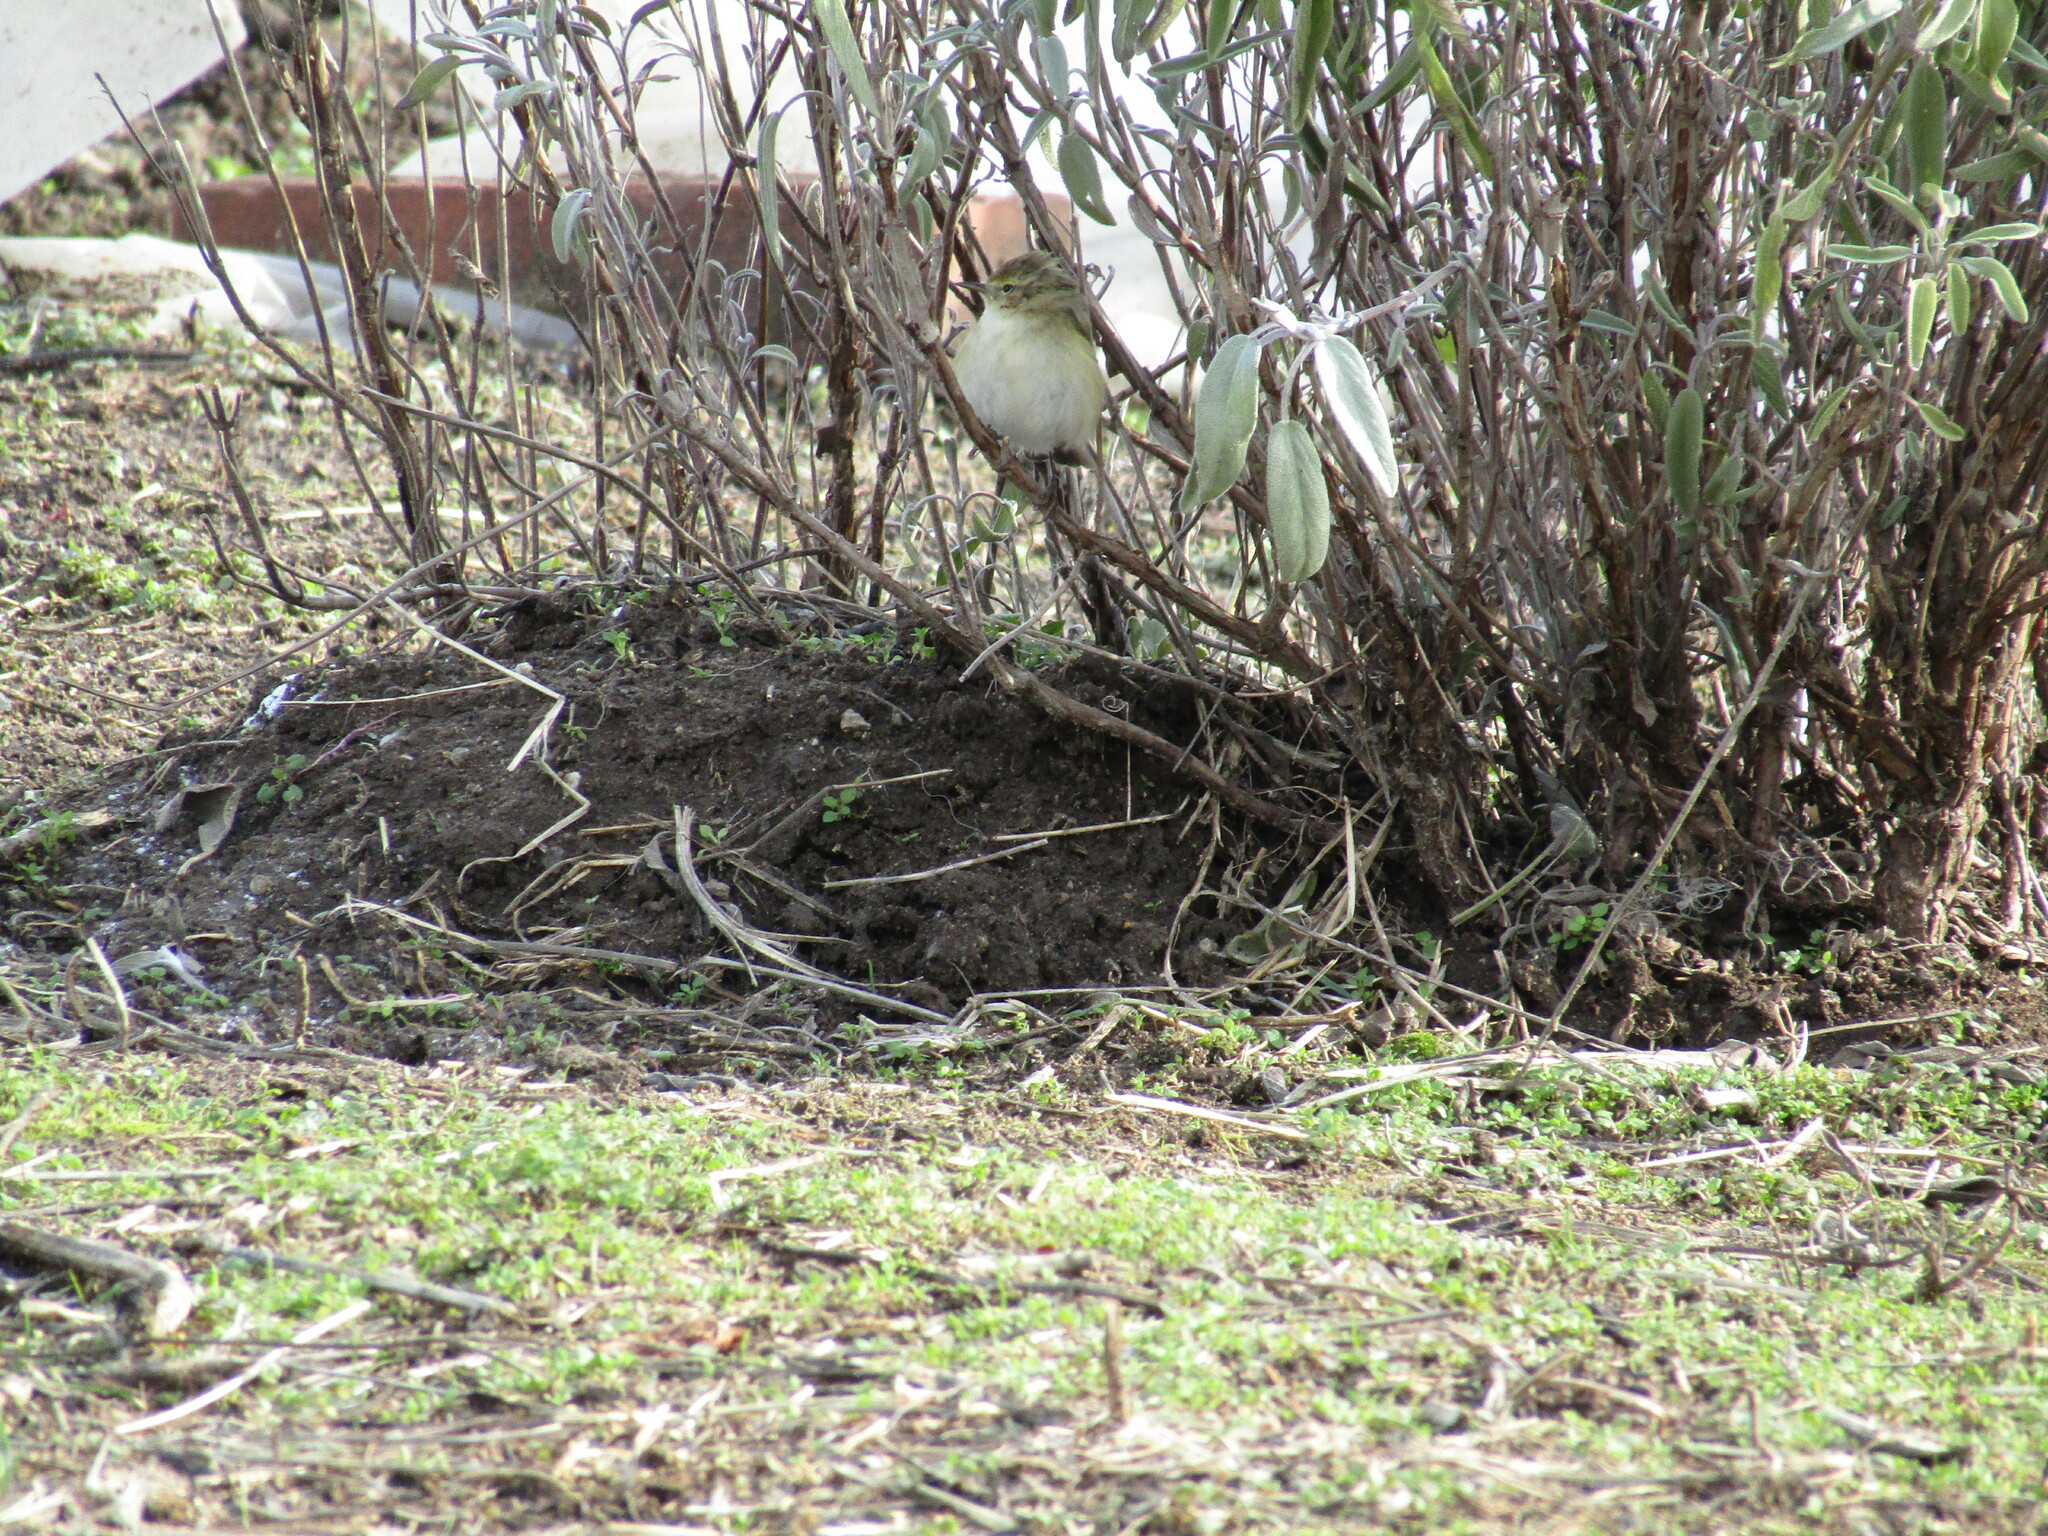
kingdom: Animalia
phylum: Chordata
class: Aves
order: Passeriformes
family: Phylloscopidae
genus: Phylloscopus
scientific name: Phylloscopus collybita
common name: Common chiffchaff
